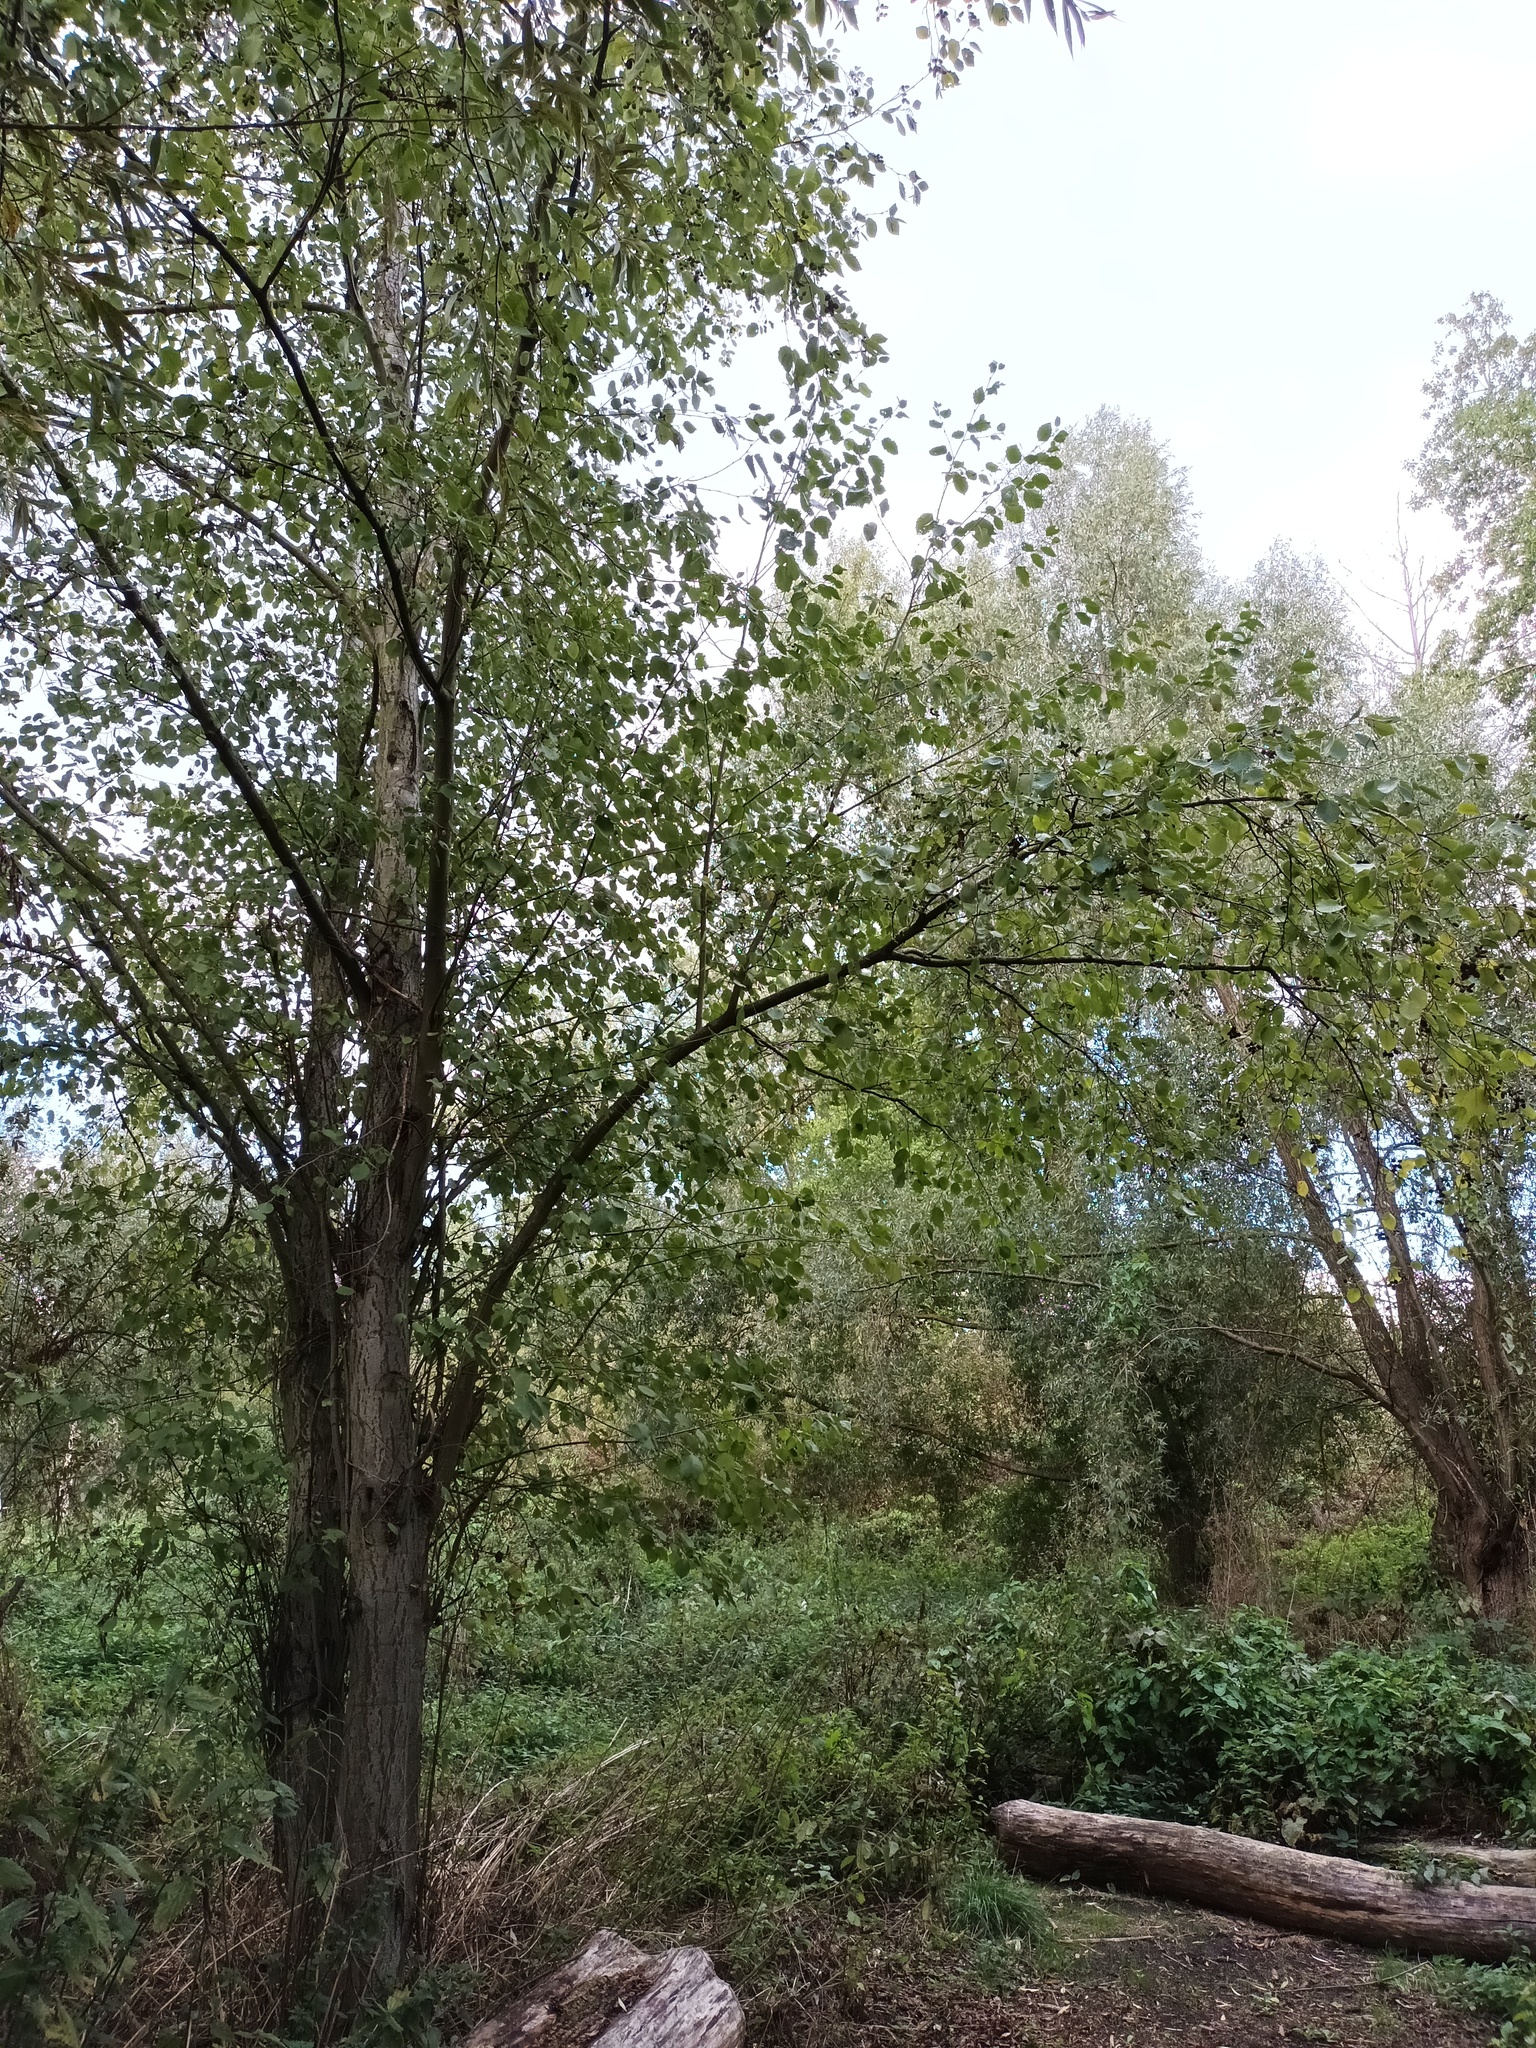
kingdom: Plantae
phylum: Tracheophyta
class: Magnoliopsida
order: Fagales
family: Betulaceae
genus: Alnus
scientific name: Alnus incana
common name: Grey alder
